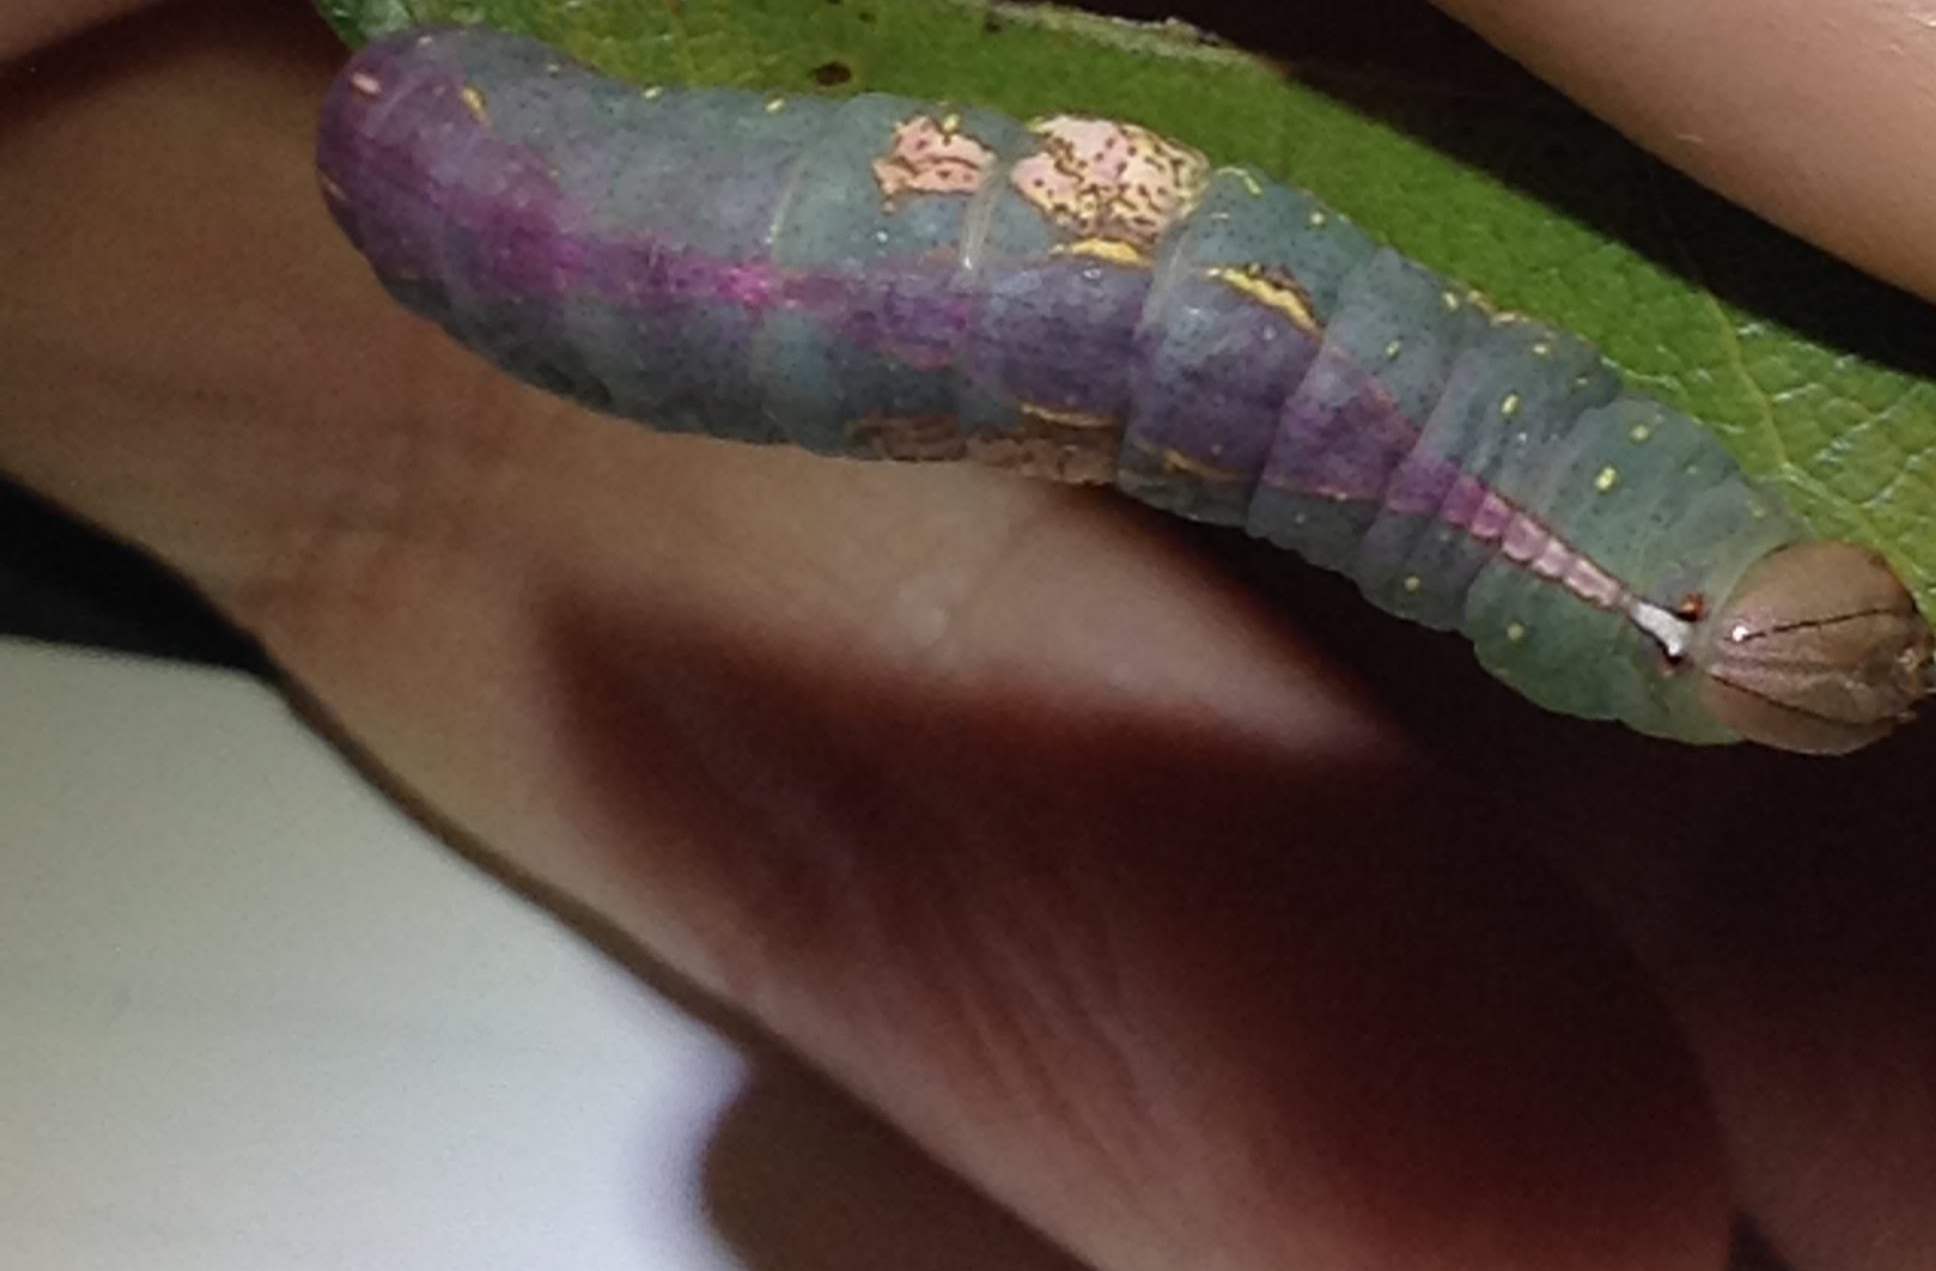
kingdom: Animalia
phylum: Arthropoda
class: Insecta
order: Lepidoptera
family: Notodontidae
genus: Heterocampa
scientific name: Heterocampa umbrata
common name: White-blotched heterocampa
